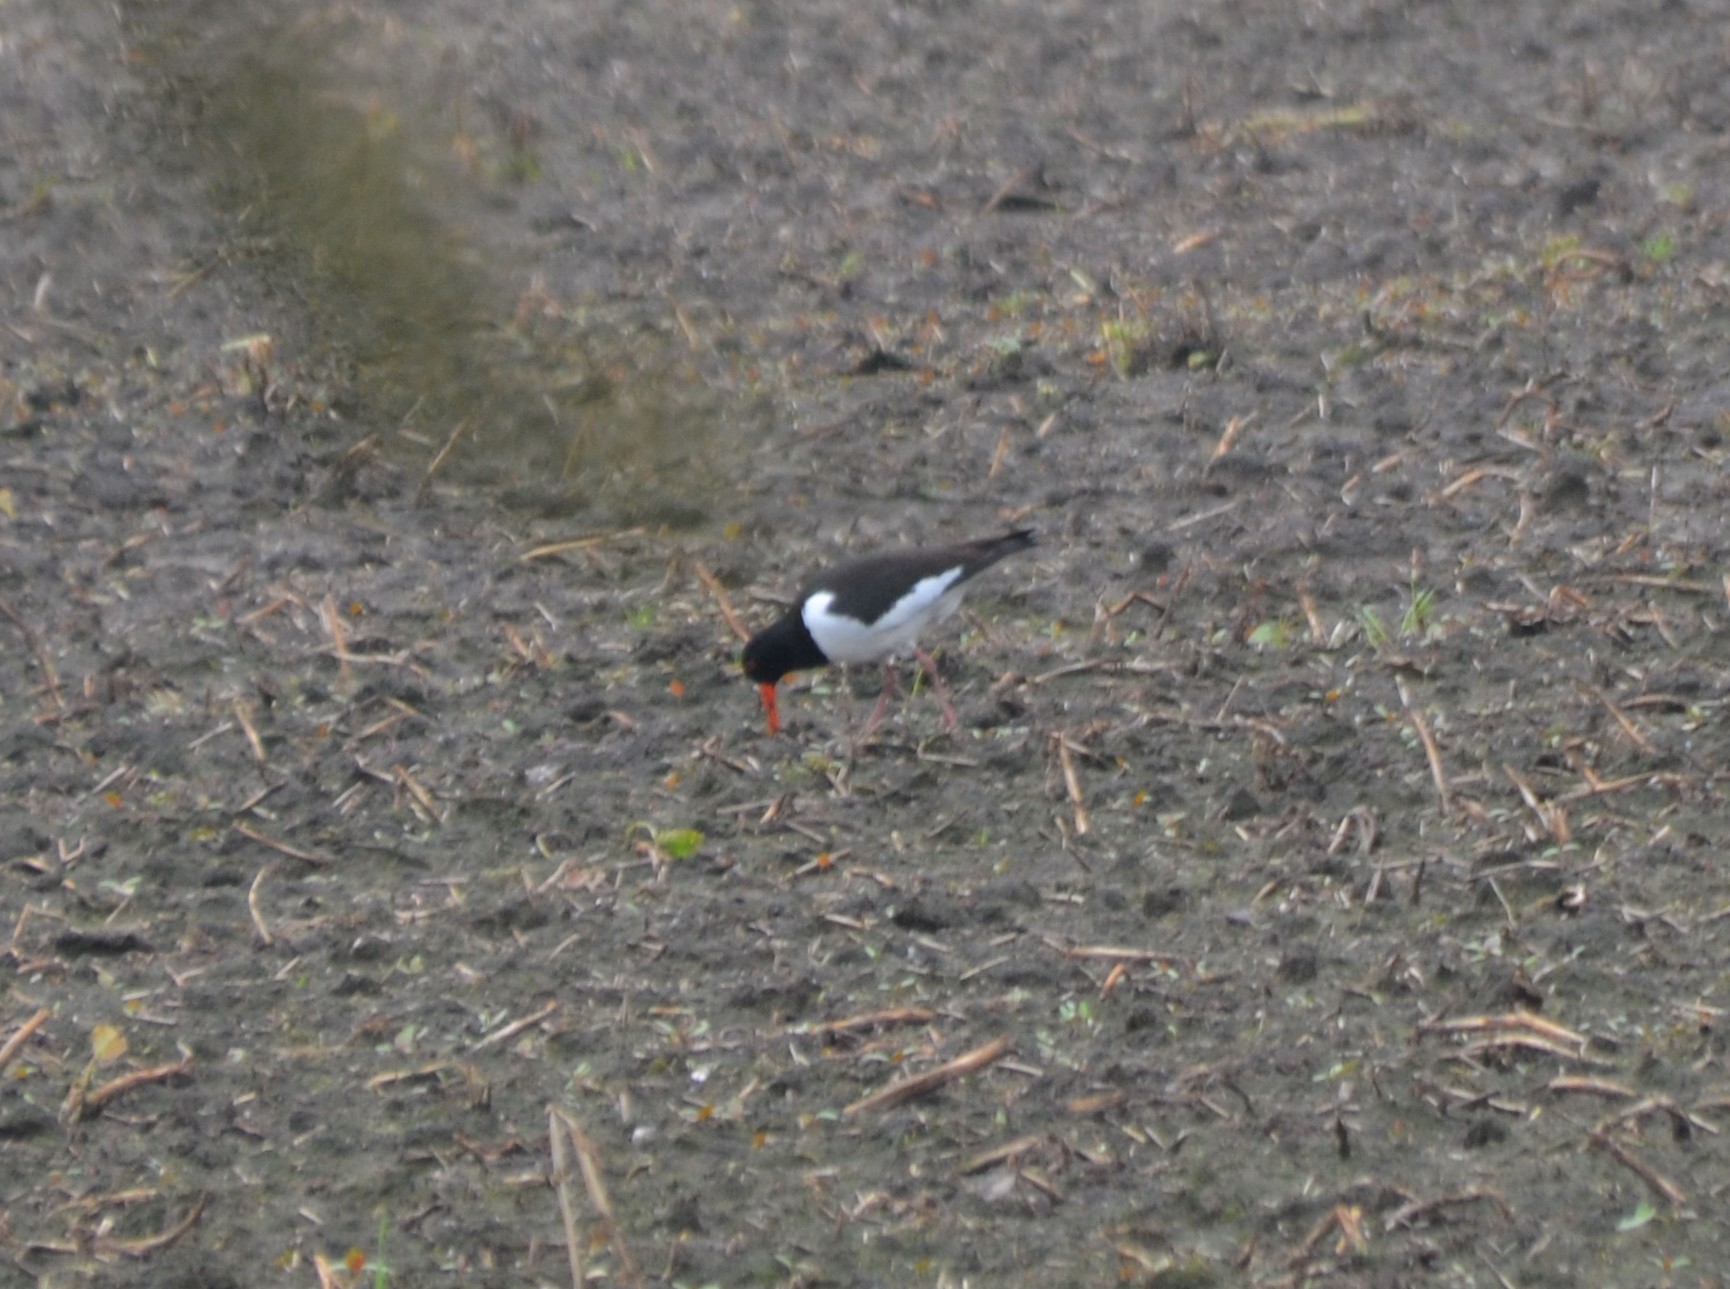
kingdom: Animalia
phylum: Chordata
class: Aves
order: Charadriiformes
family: Haematopodidae
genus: Haematopus
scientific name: Haematopus ostralegus
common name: Eurasian oystercatcher
